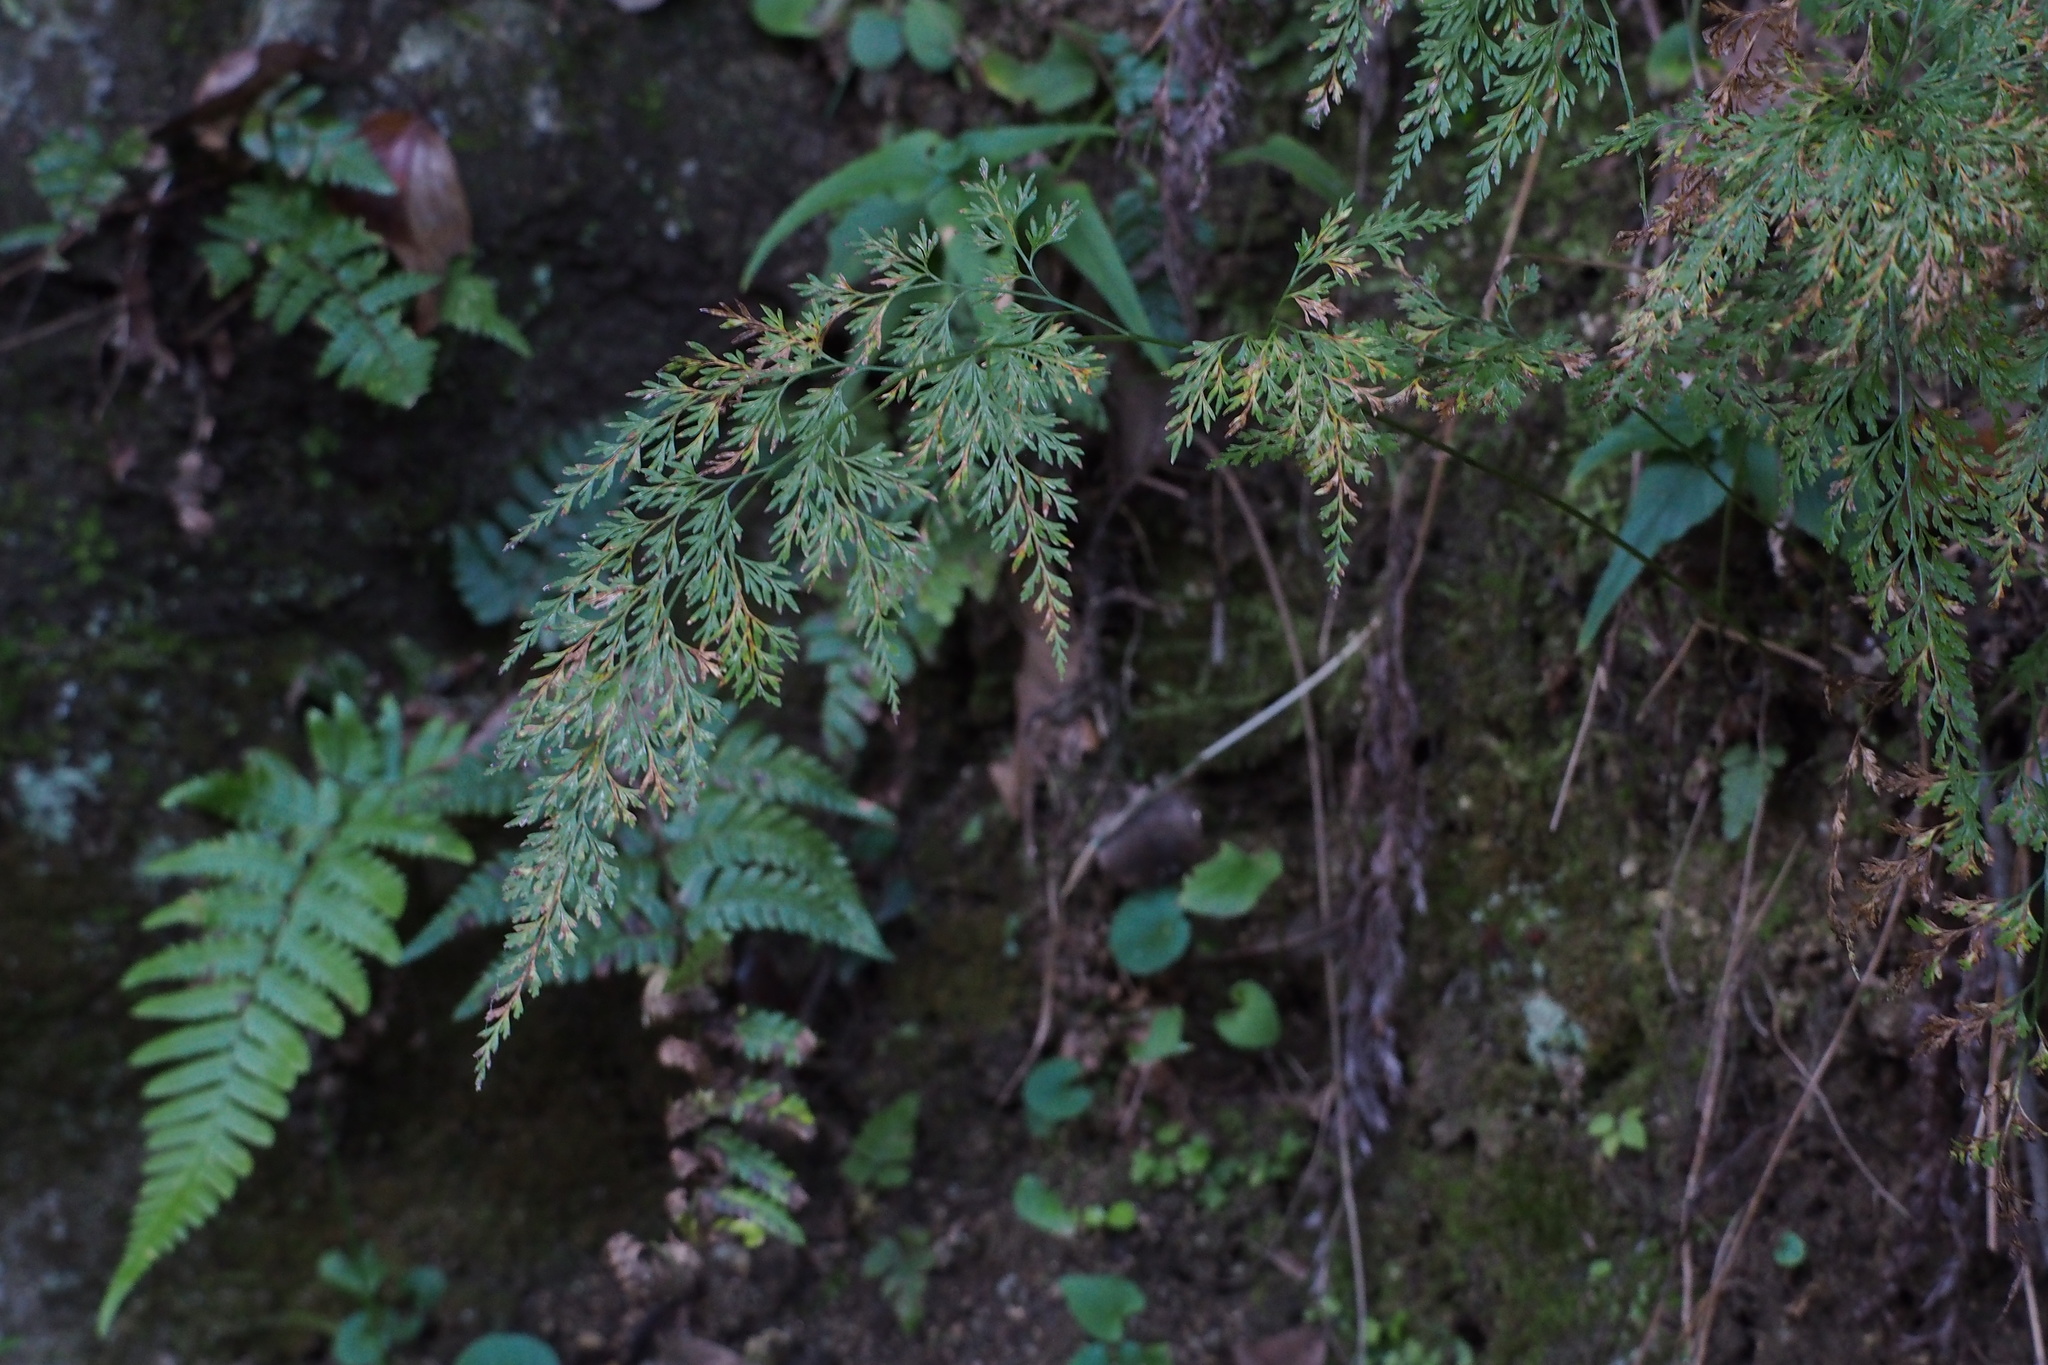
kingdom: Plantae
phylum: Tracheophyta
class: Polypodiopsida
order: Polypodiales
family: Pteridaceae
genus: Onychium
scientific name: Onychium japonicum
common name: Carrot fern
